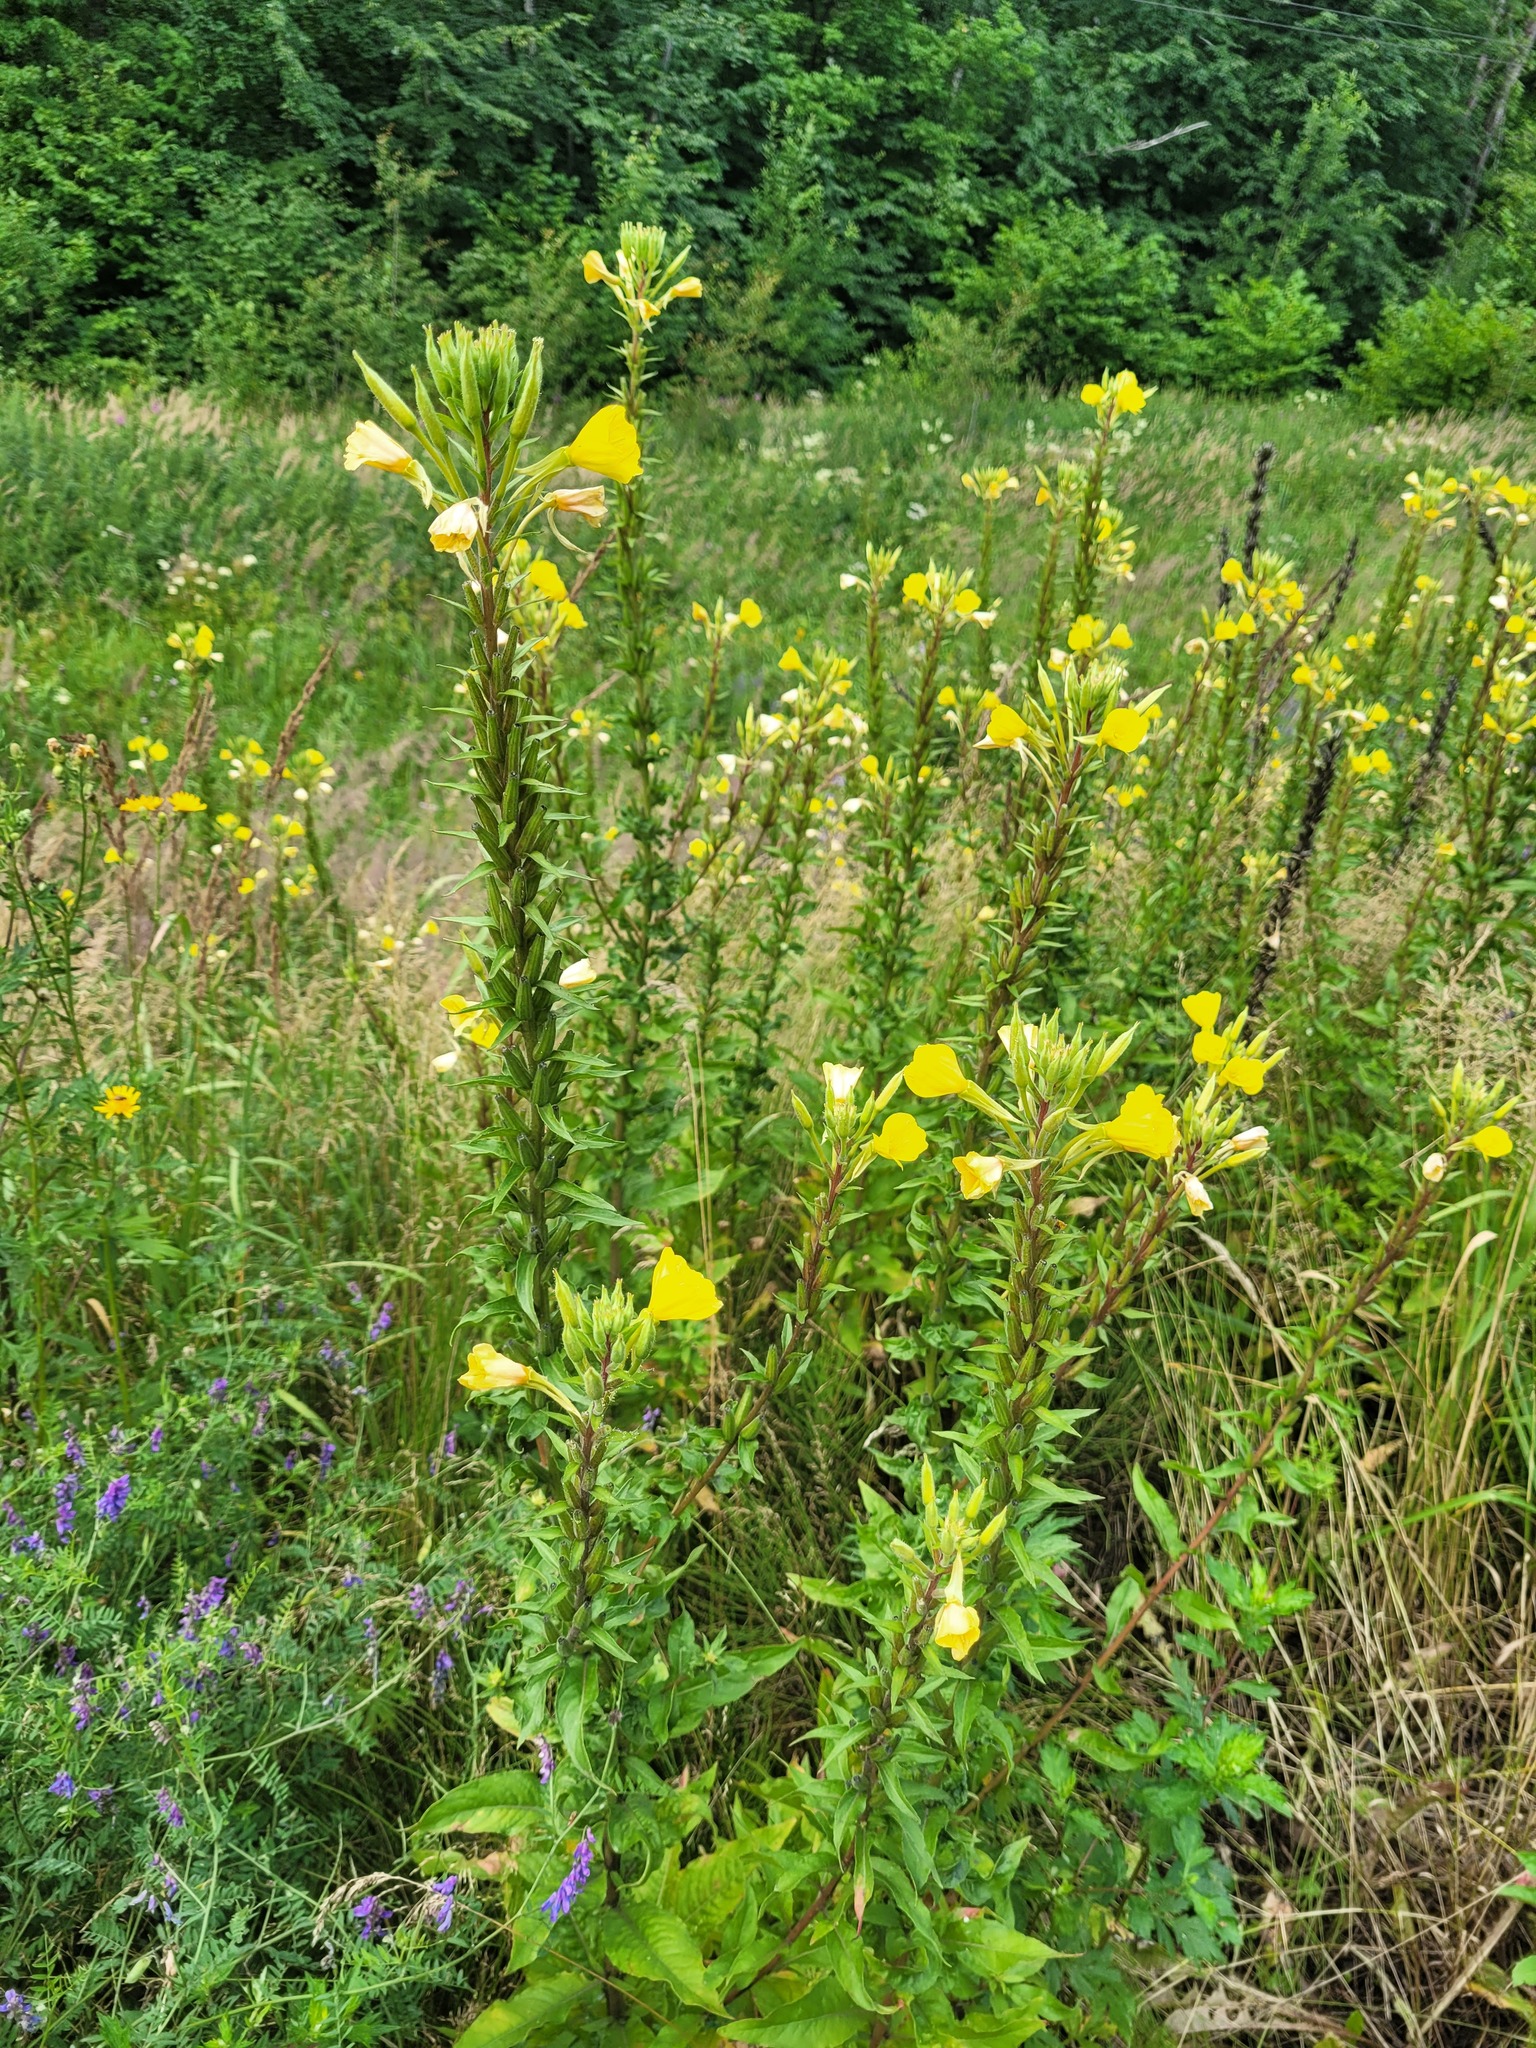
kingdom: Plantae
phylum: Tracheophyta
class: Magnoliopsida
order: Myrtales
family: Onagraceae
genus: Oenothera
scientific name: Oenothera rubricaulis
